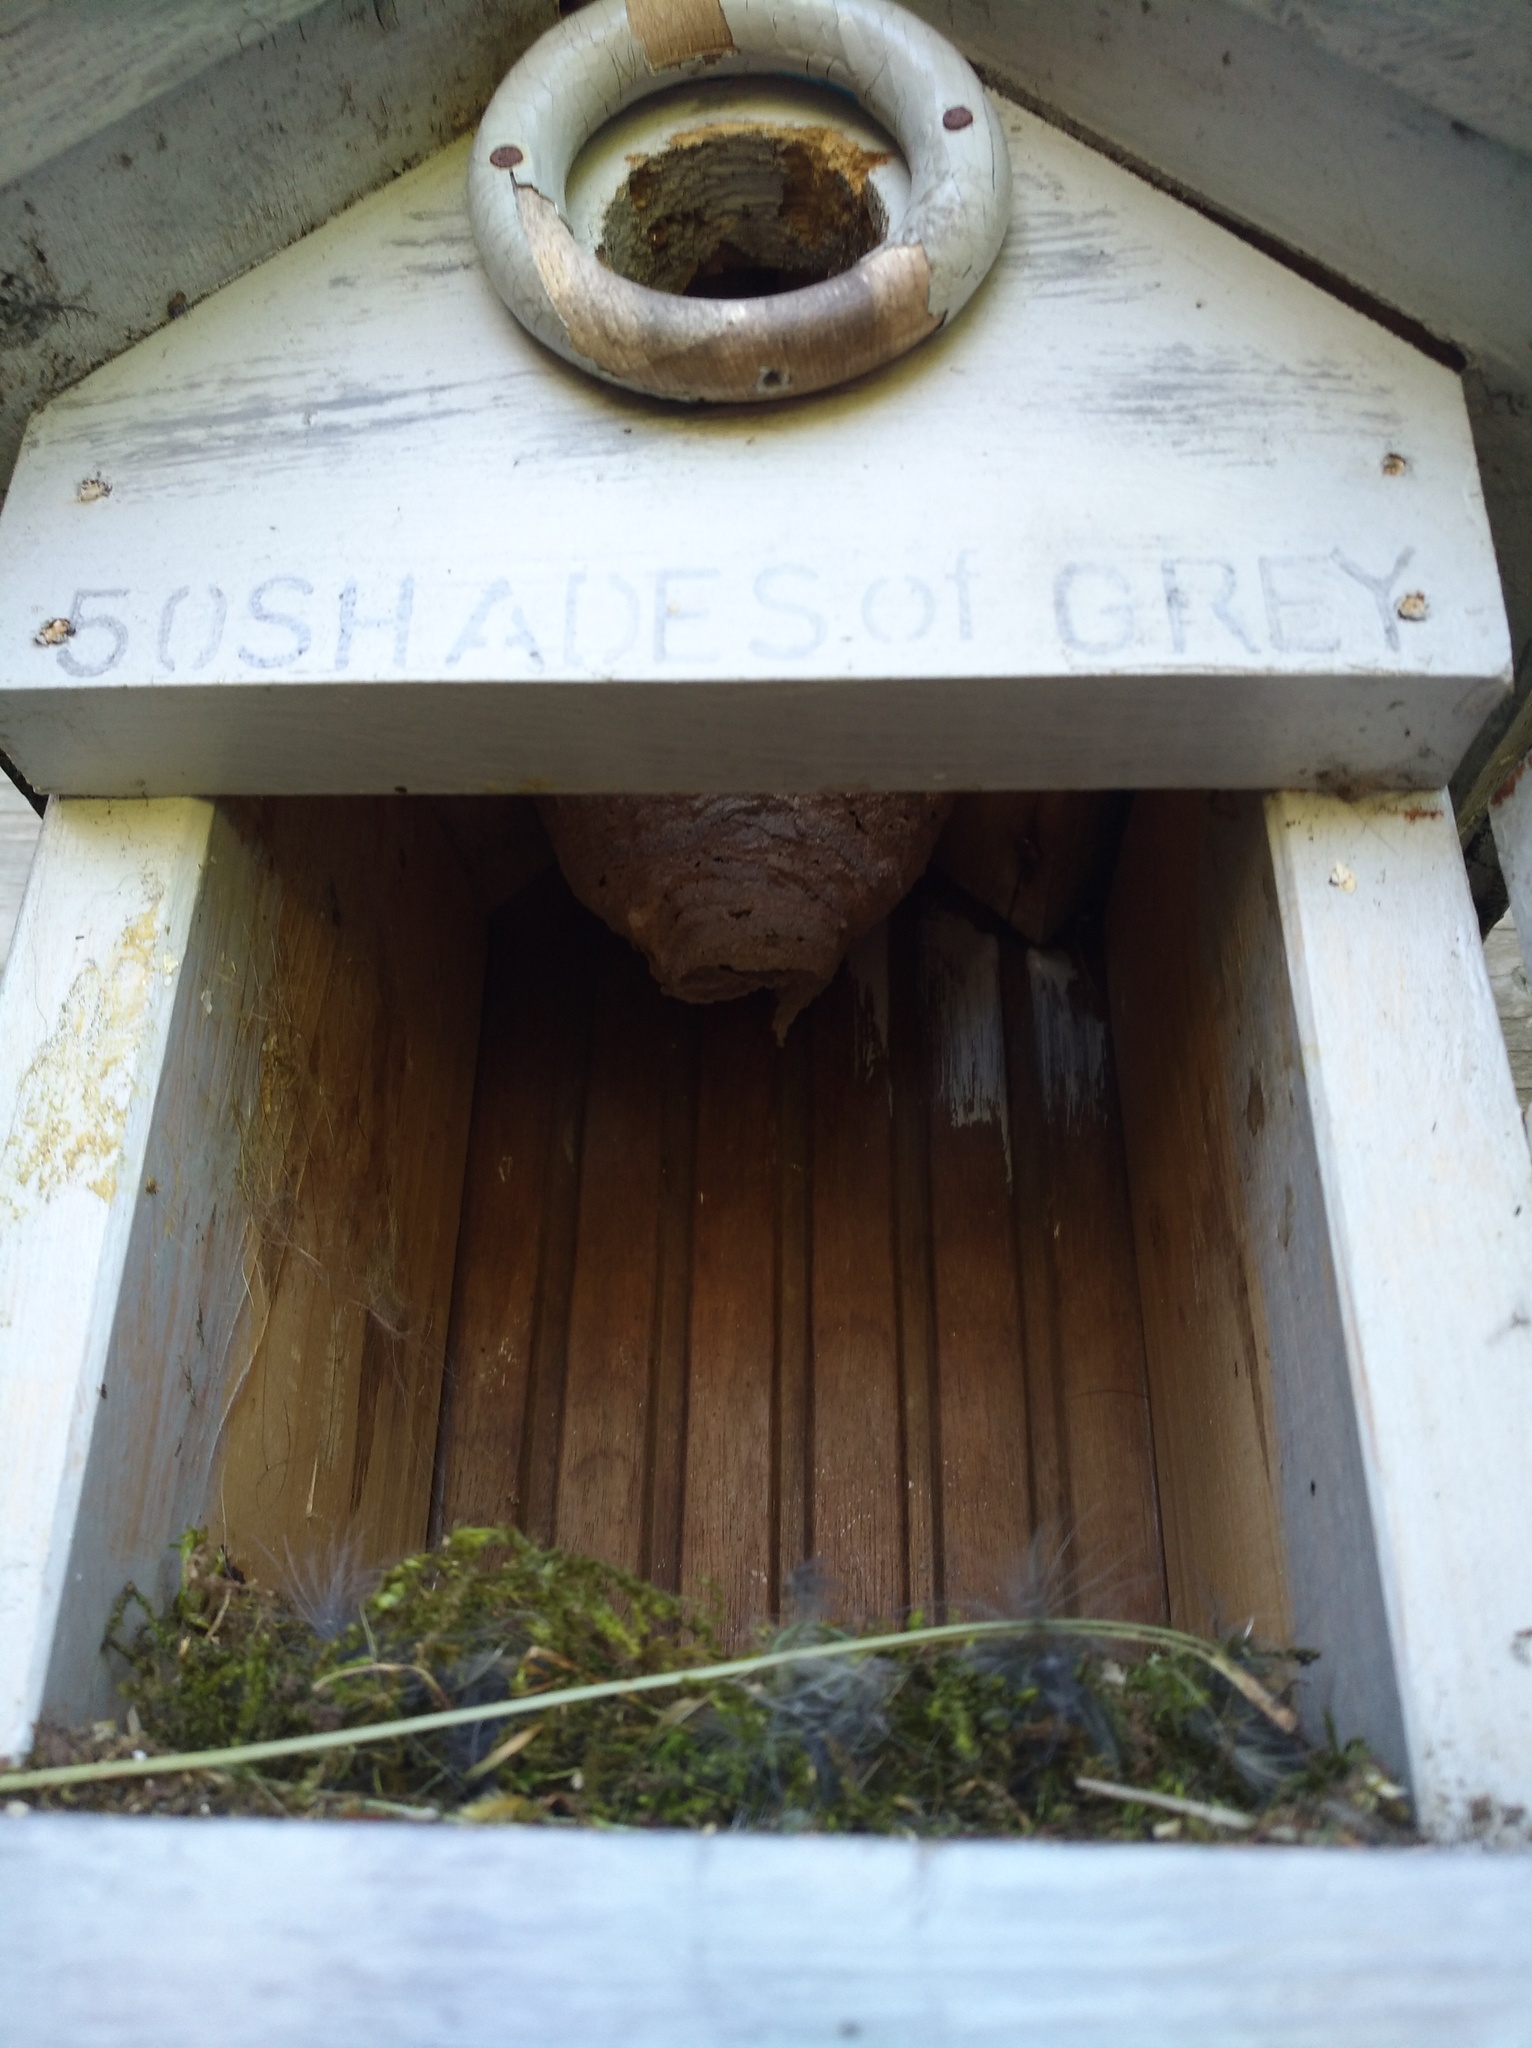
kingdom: Animalia
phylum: Arthropoda
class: Insecta
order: Hymenoptera
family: Vespidae
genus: Vespa
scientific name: Vespa crabro
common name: Hornet
